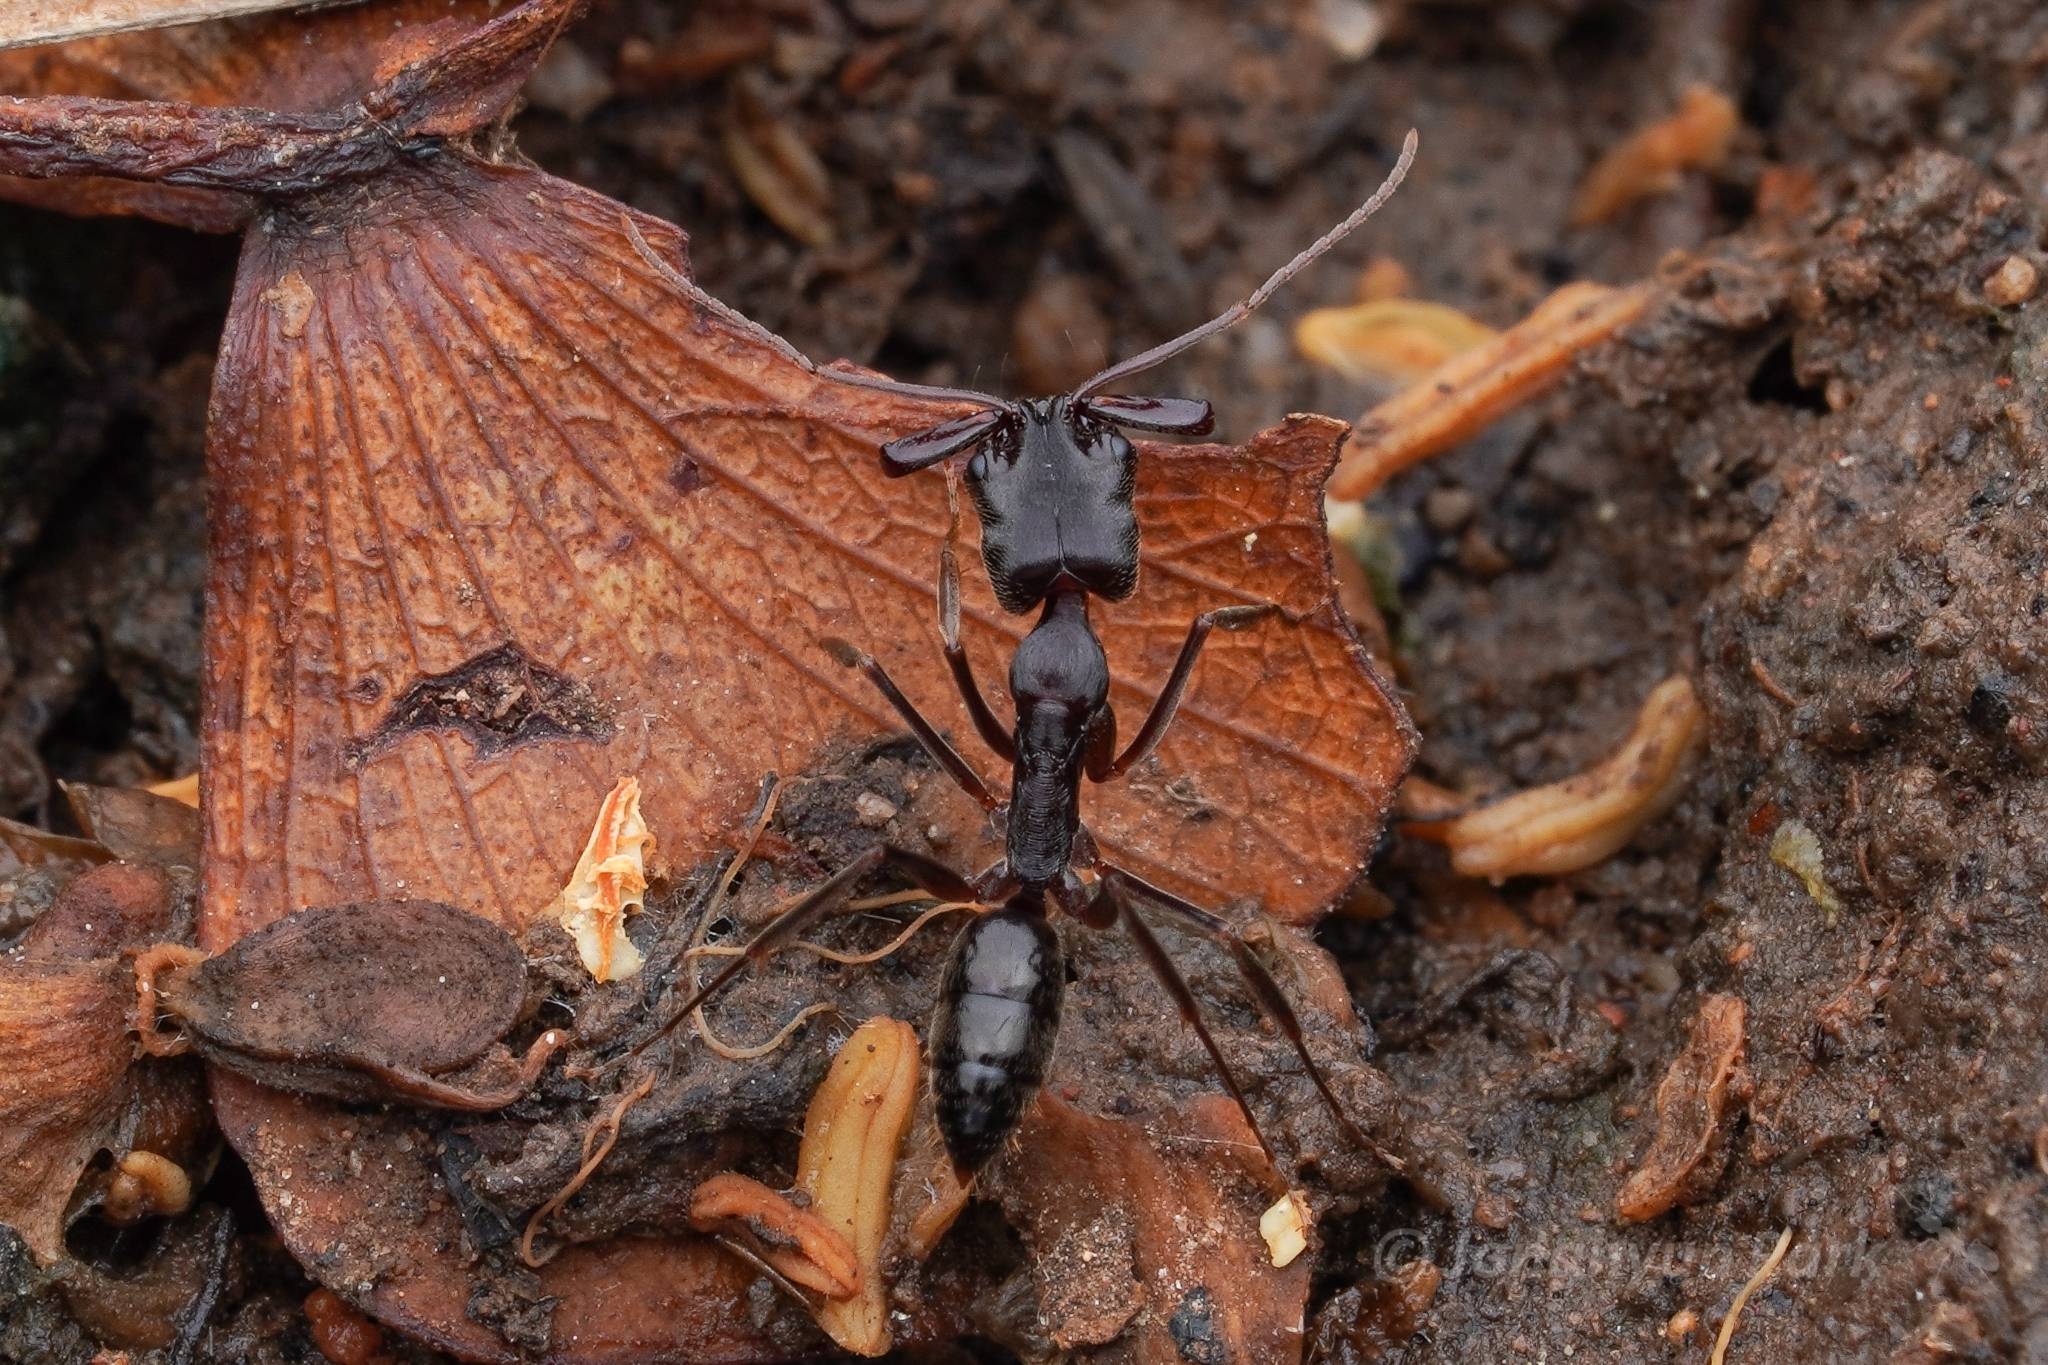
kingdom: Animalia
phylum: Arthropoda
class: Insecta
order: Hymenoptera
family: Formicidae
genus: Odontomachus
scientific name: Odontomachus troglodytes
